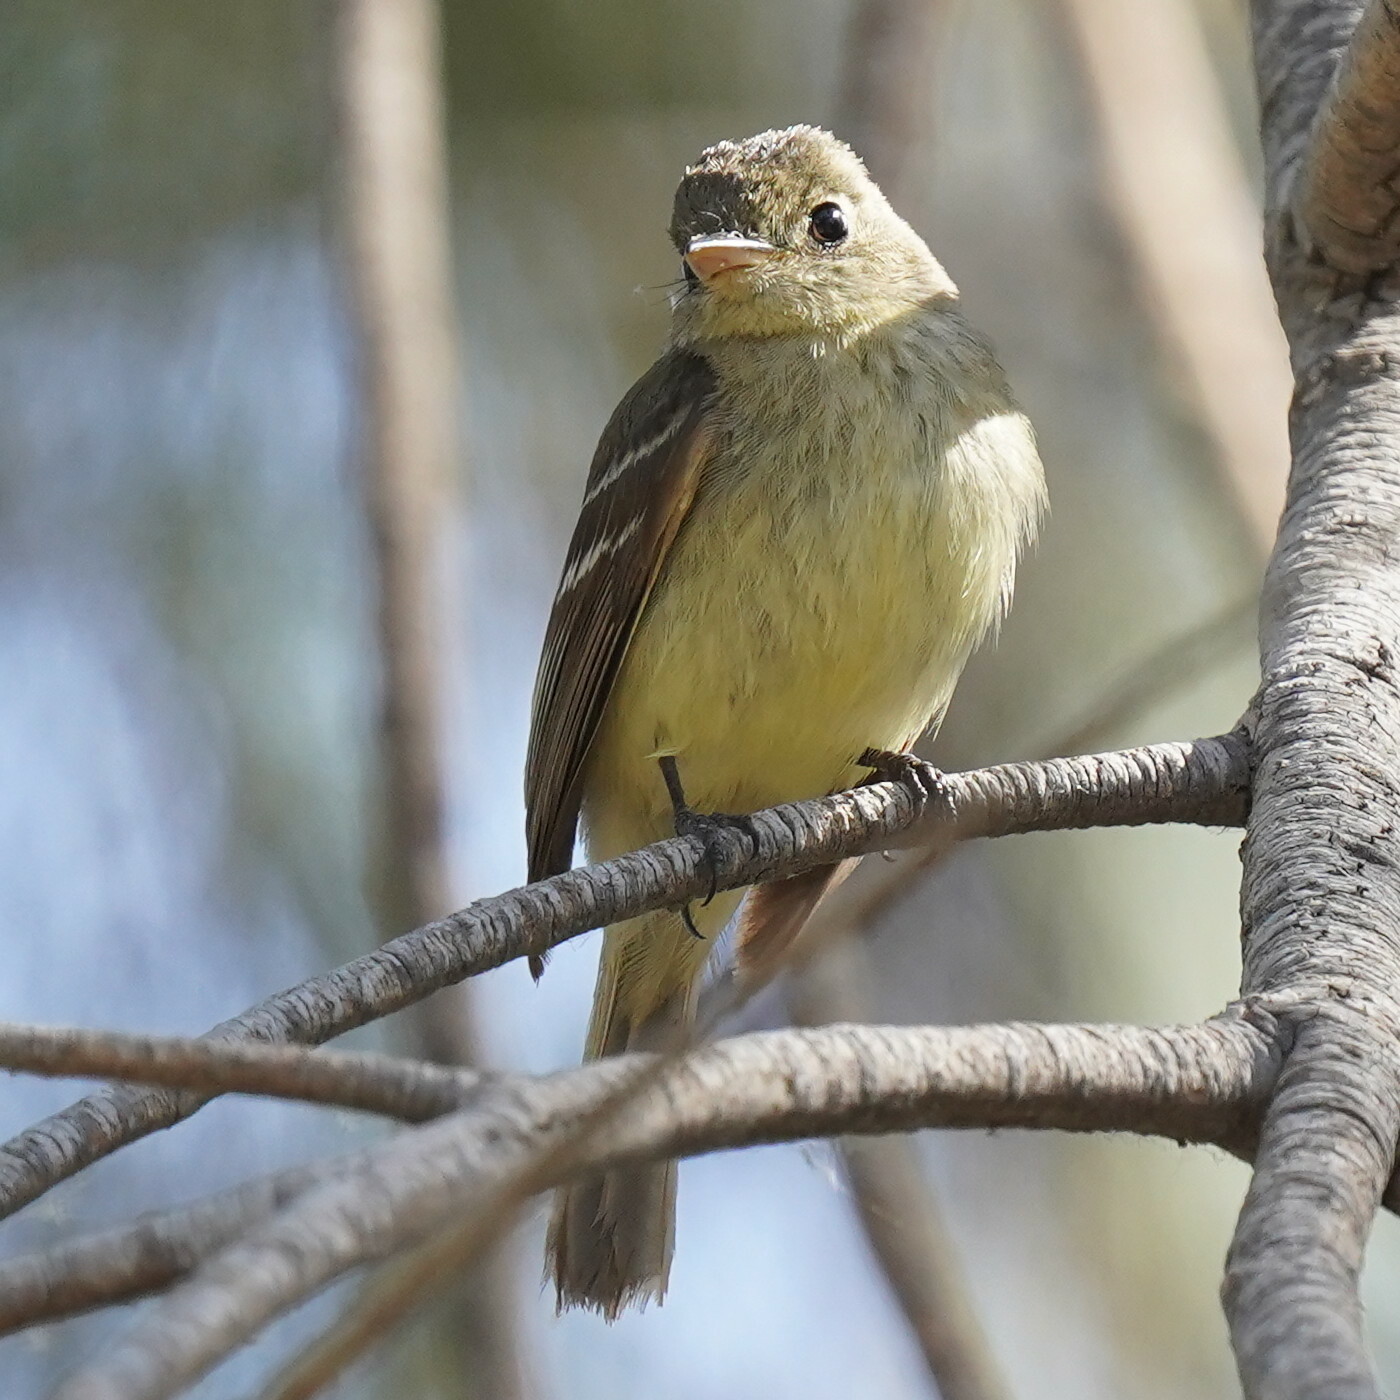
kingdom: Animalia
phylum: Chordata
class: Aves
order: Passeriformes
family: Tyrannidae
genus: Empidonax
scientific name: Empidonax difficilis
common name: Pacific-slope flycatcher
